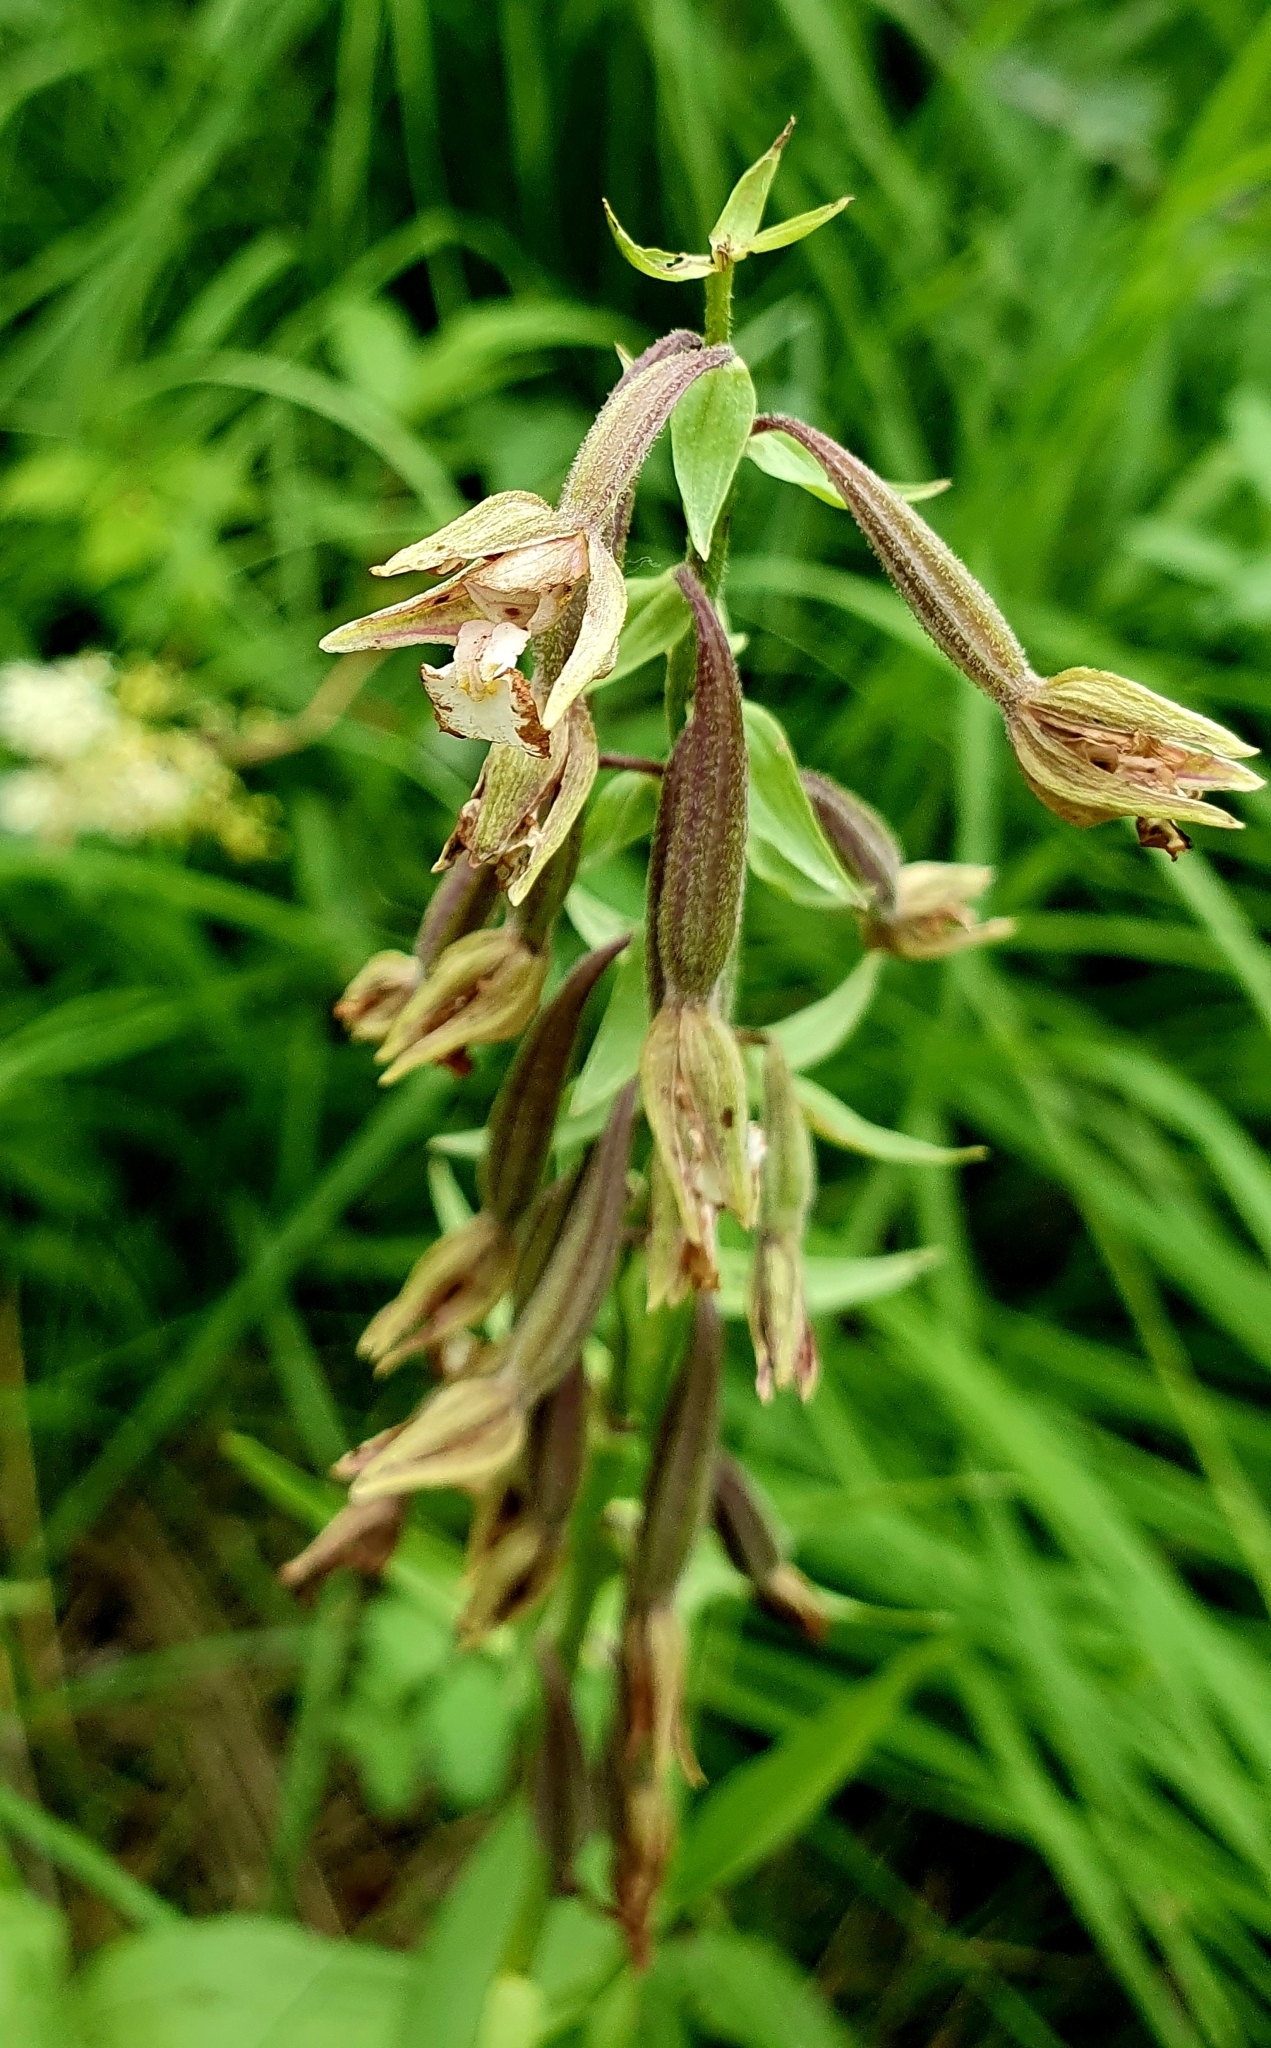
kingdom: Plantae
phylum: Tracheophyta
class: Liliopsida
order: Asparagales
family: Orchidaceae
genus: Epipactis
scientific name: Epipactis palustris
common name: Marsh helleborine
